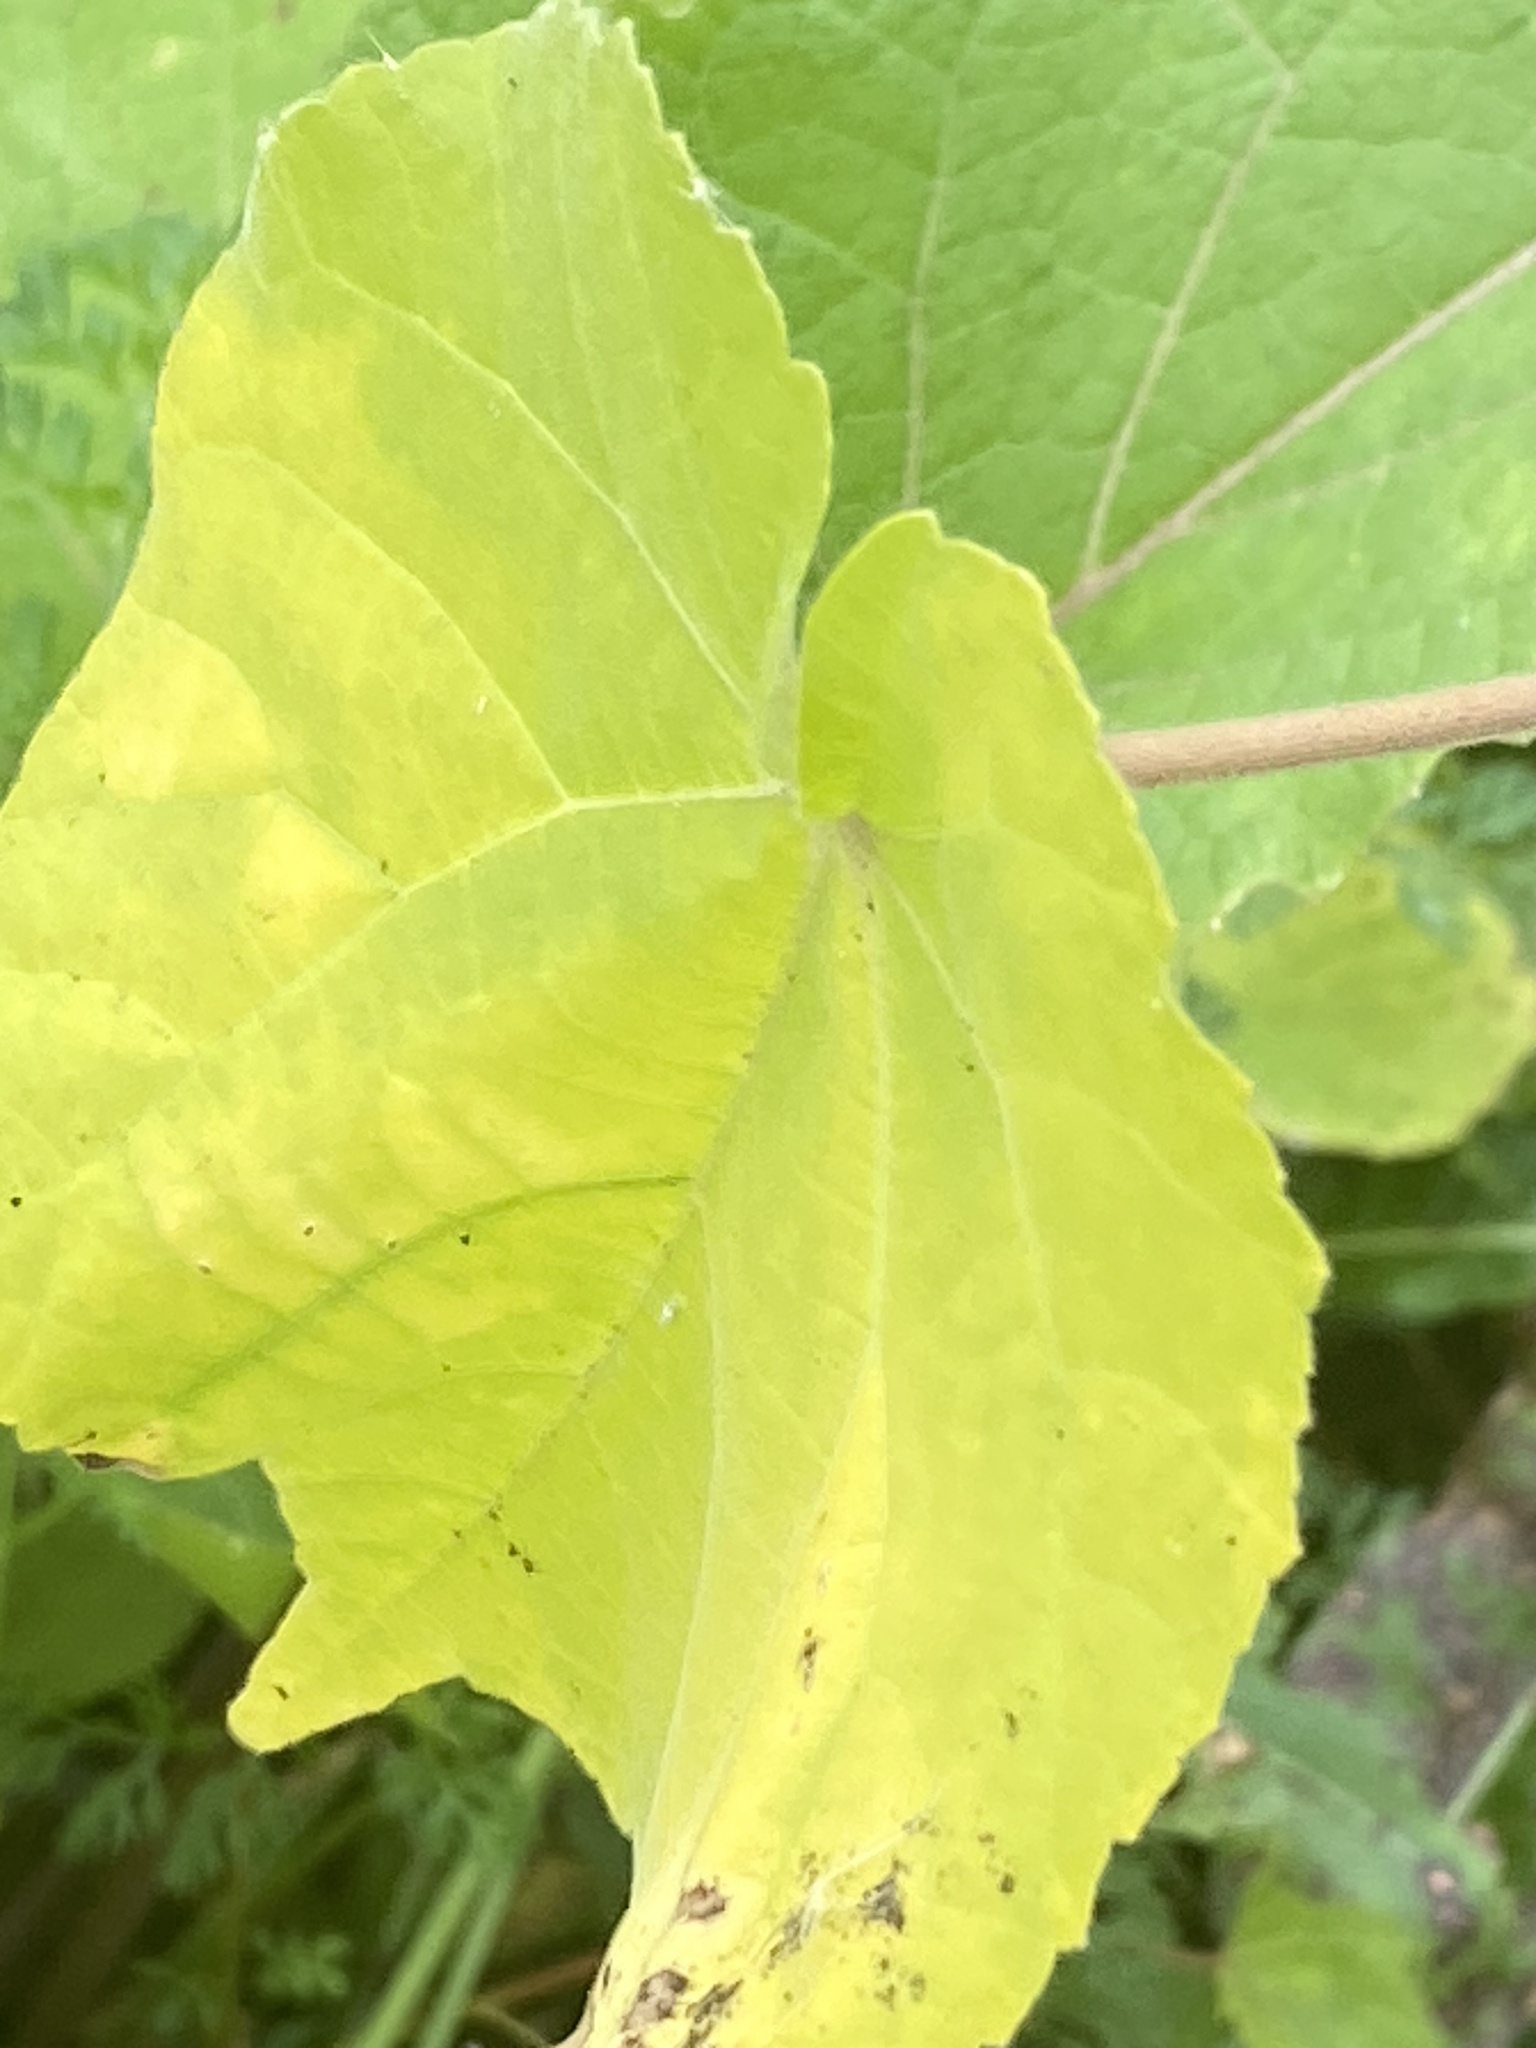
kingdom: Plantae
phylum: Tracheophyta
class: Magnoliopsida
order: Malvales
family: Malvaceae
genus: Abutilon
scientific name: Abutilon theophrasti
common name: Velvetleaf
